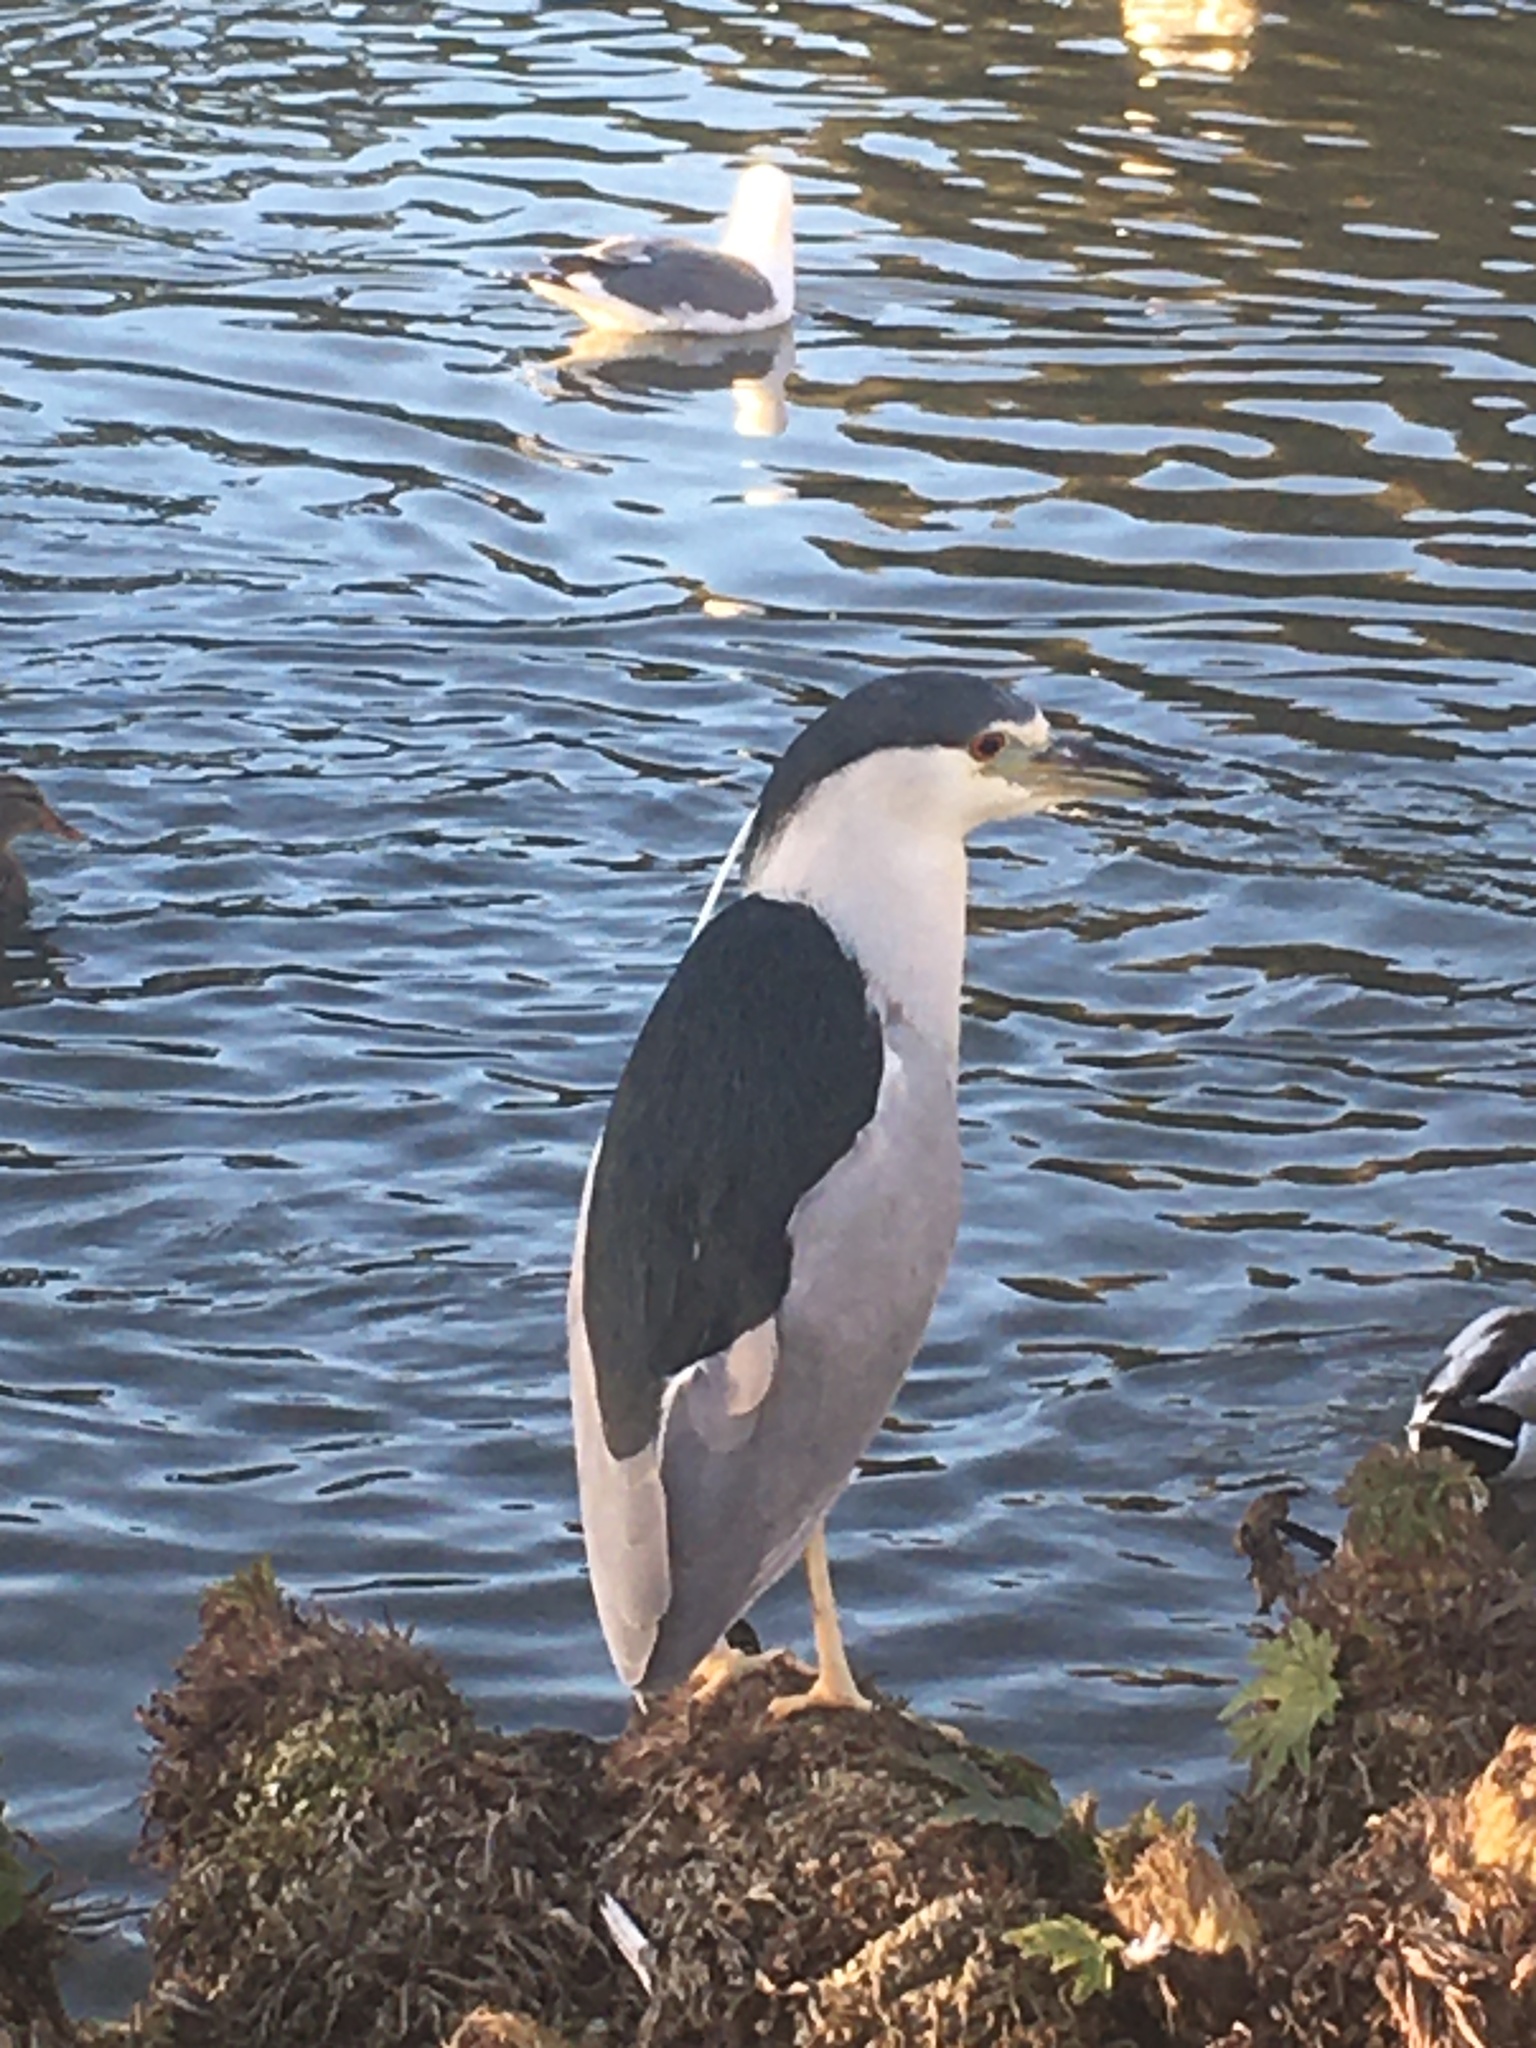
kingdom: Animalia
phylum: Chordata
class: Aves
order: Pelecaniformes
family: Ardeidae
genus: Nycticorax
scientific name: Nycticorax nycticorax
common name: Black-crowned night heron
